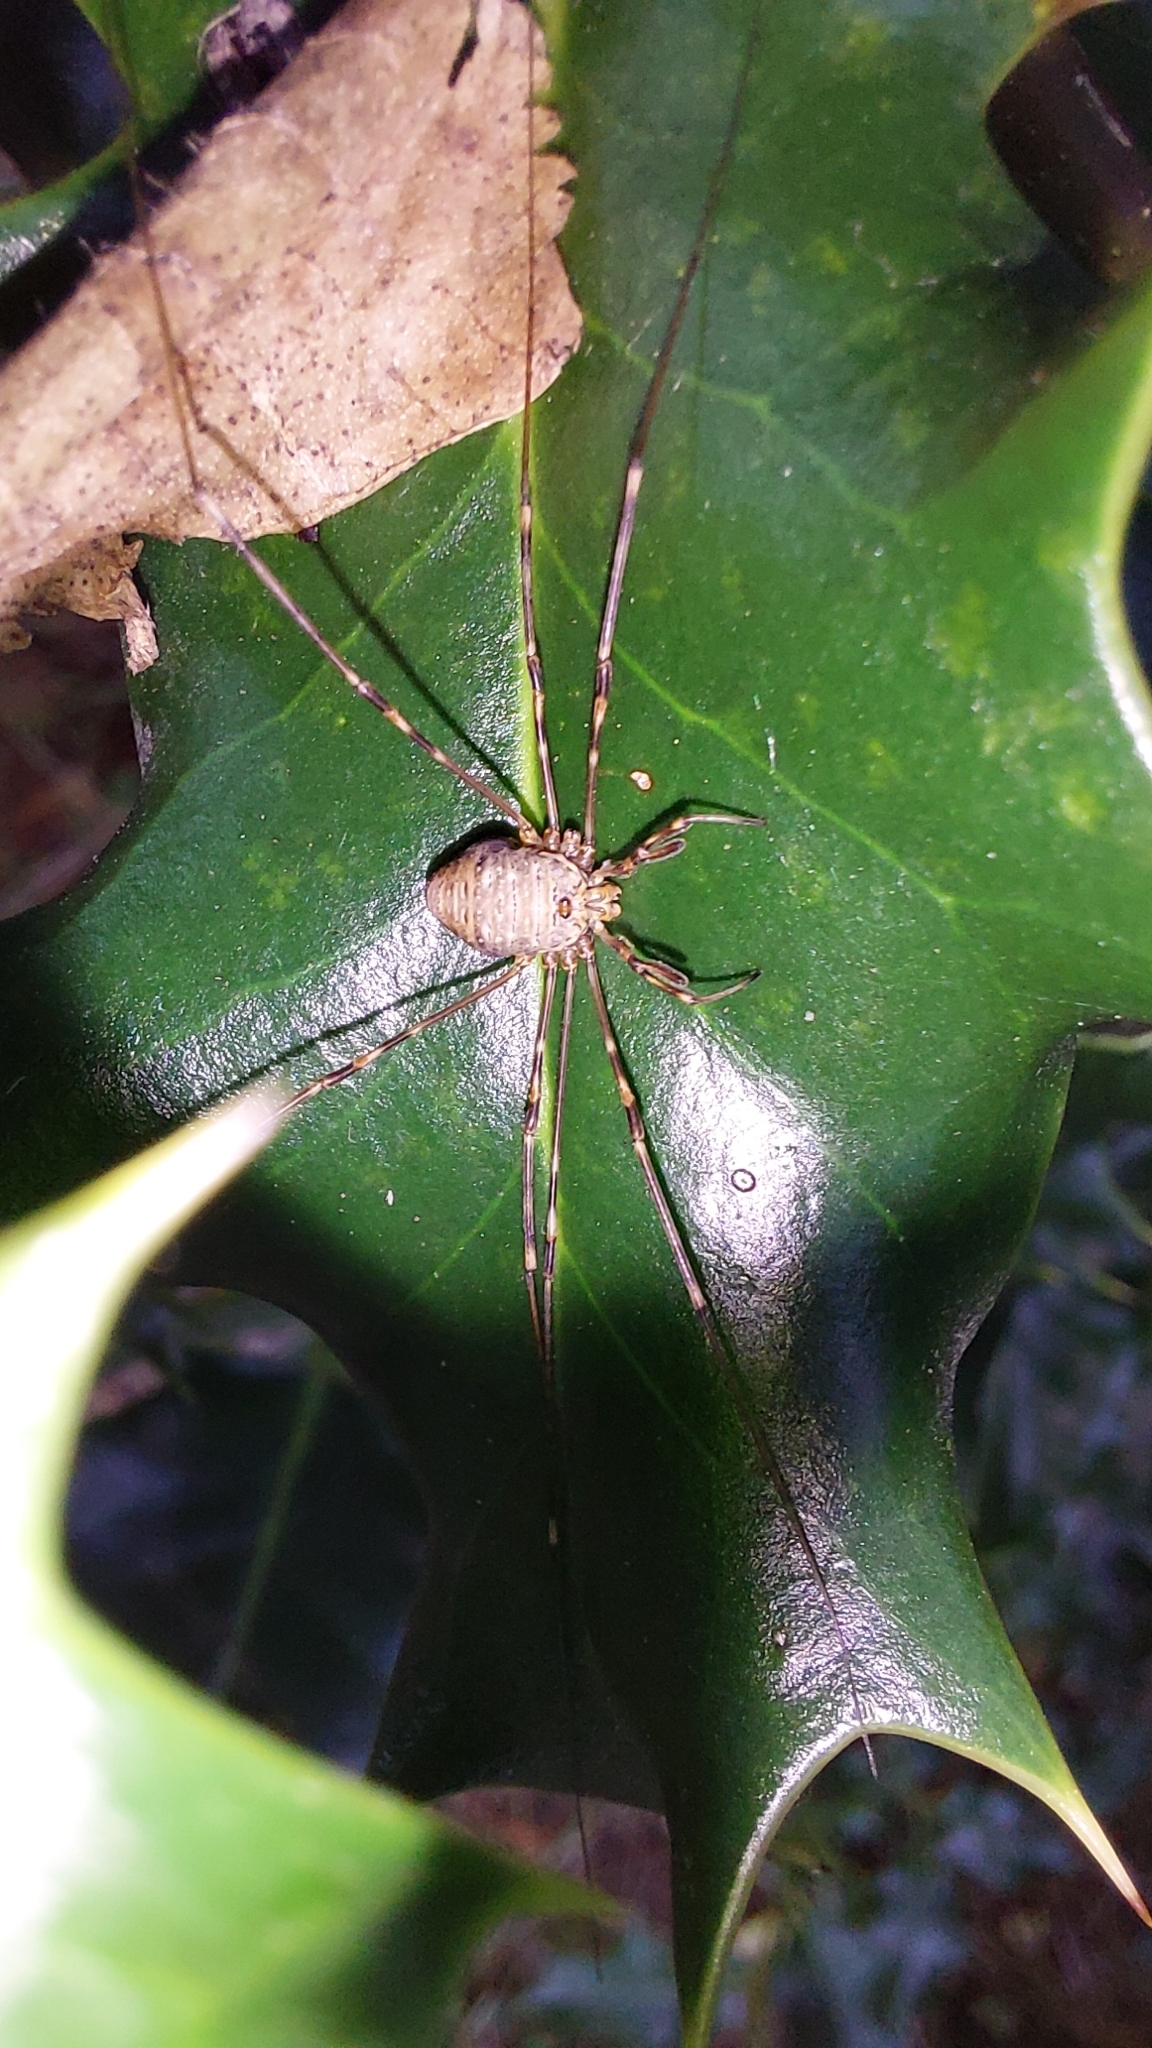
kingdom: Animalia
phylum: Arthropoda
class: Arachnida
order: Opiliones
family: Phalangiidae
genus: Dicranopalpus
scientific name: Dicranopalpus ramosus
